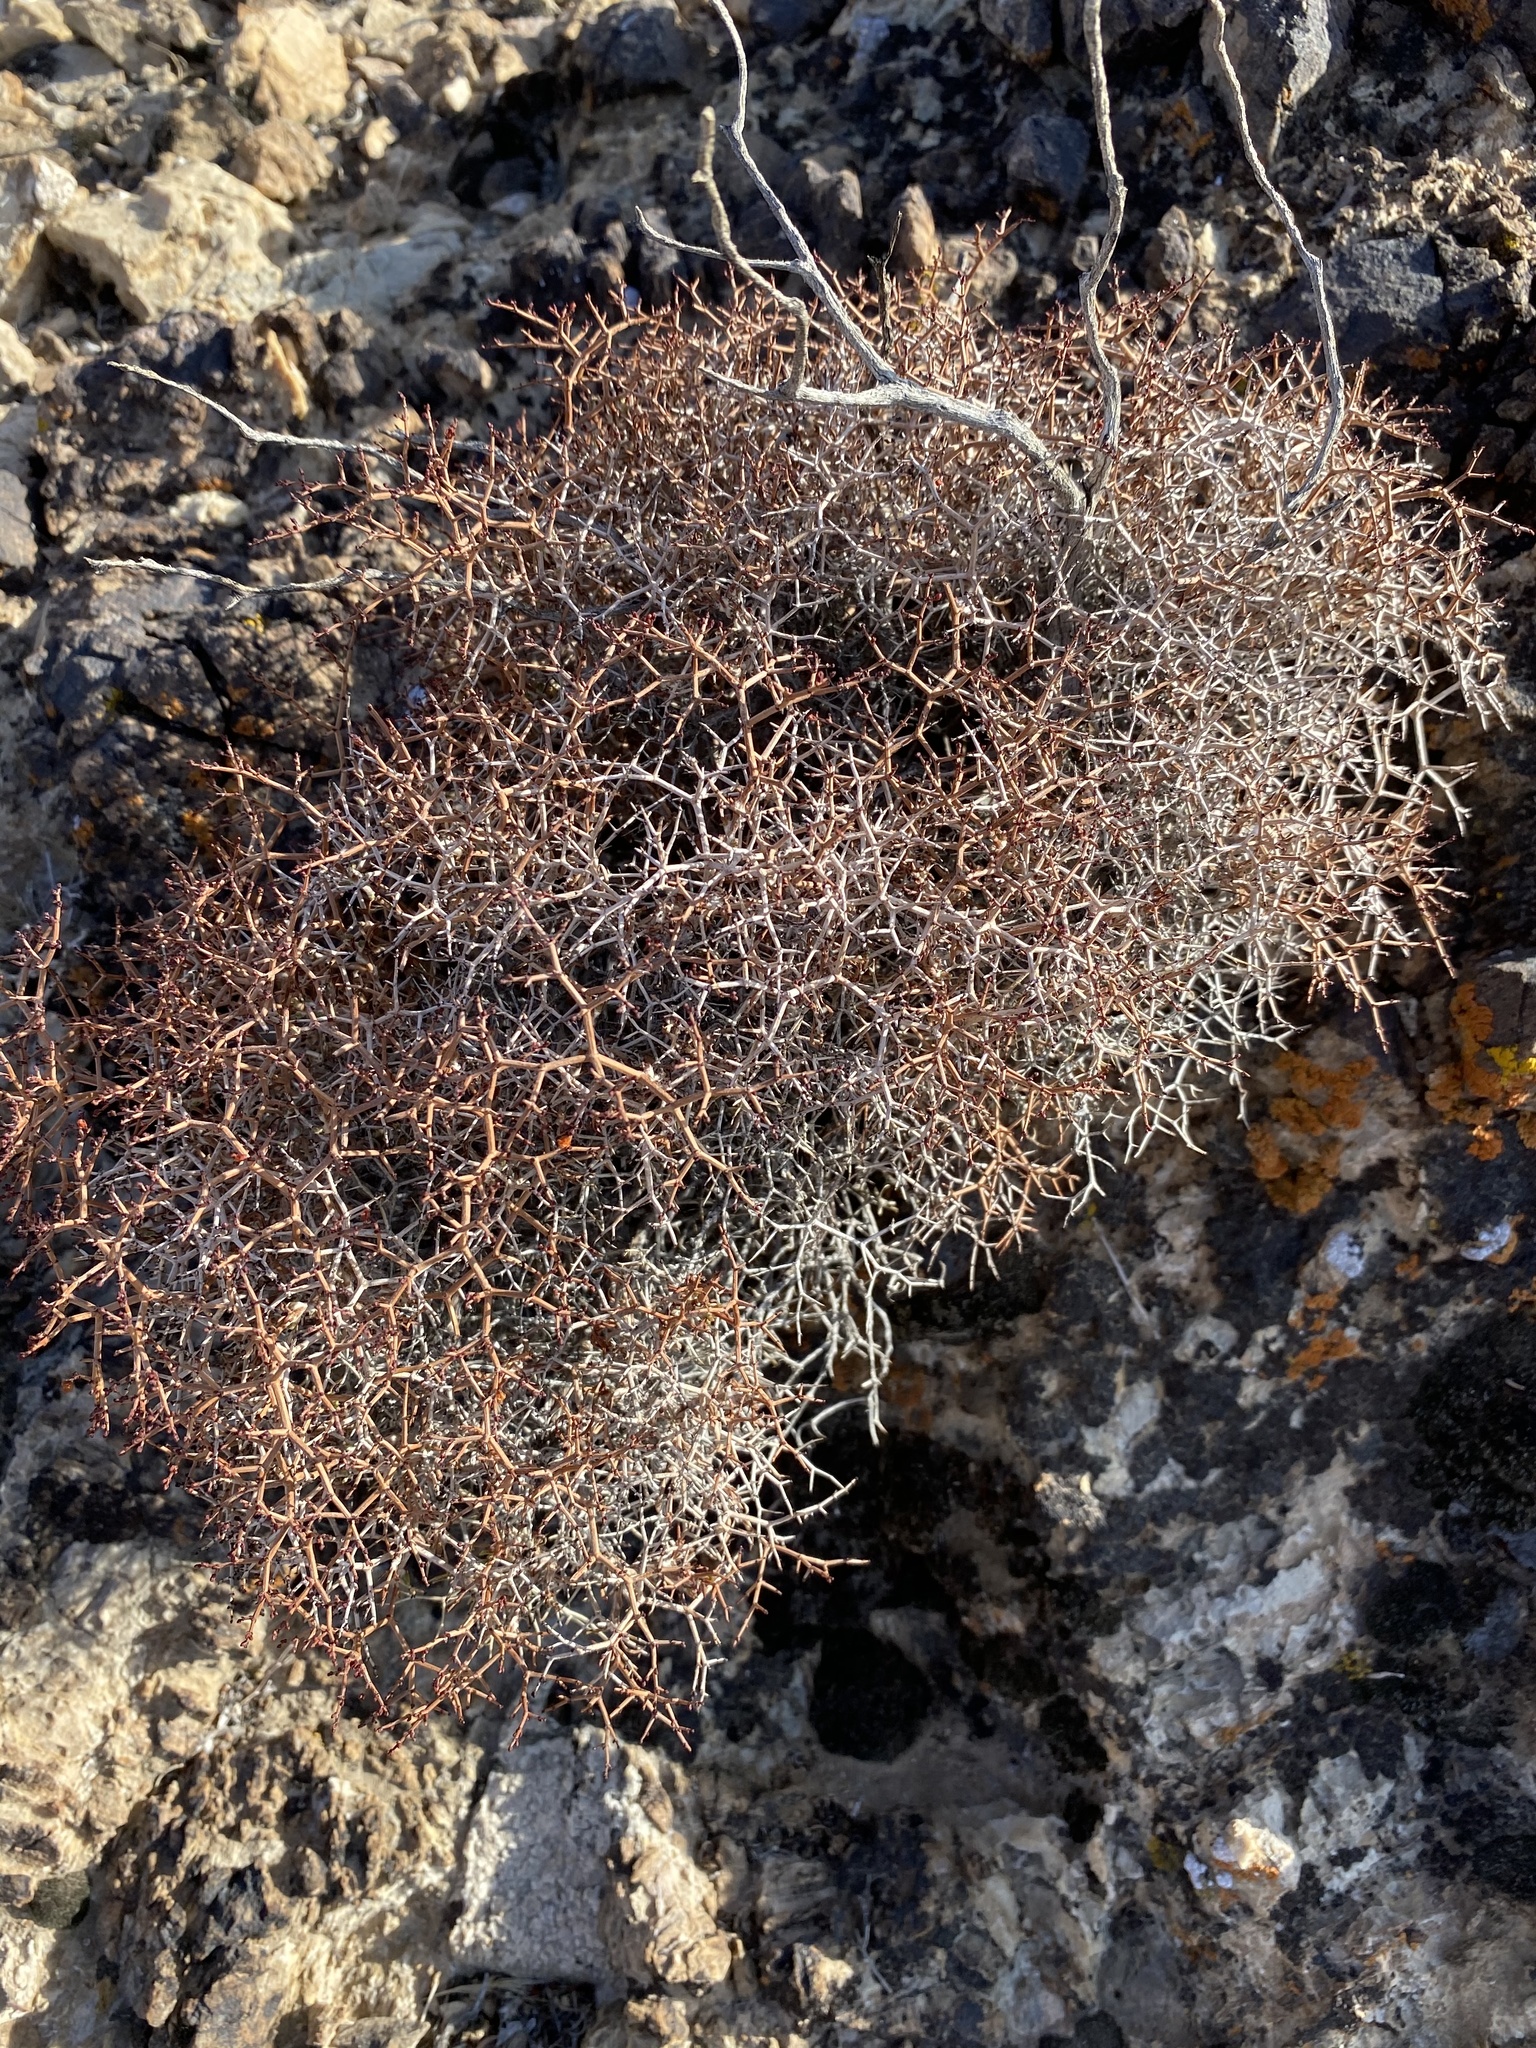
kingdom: Plantae
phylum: Tracheophyta
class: Magnoliopsida
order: Caryophyllales
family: Polygonaceae
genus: Eriogonum
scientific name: Eriogonum heermannii
